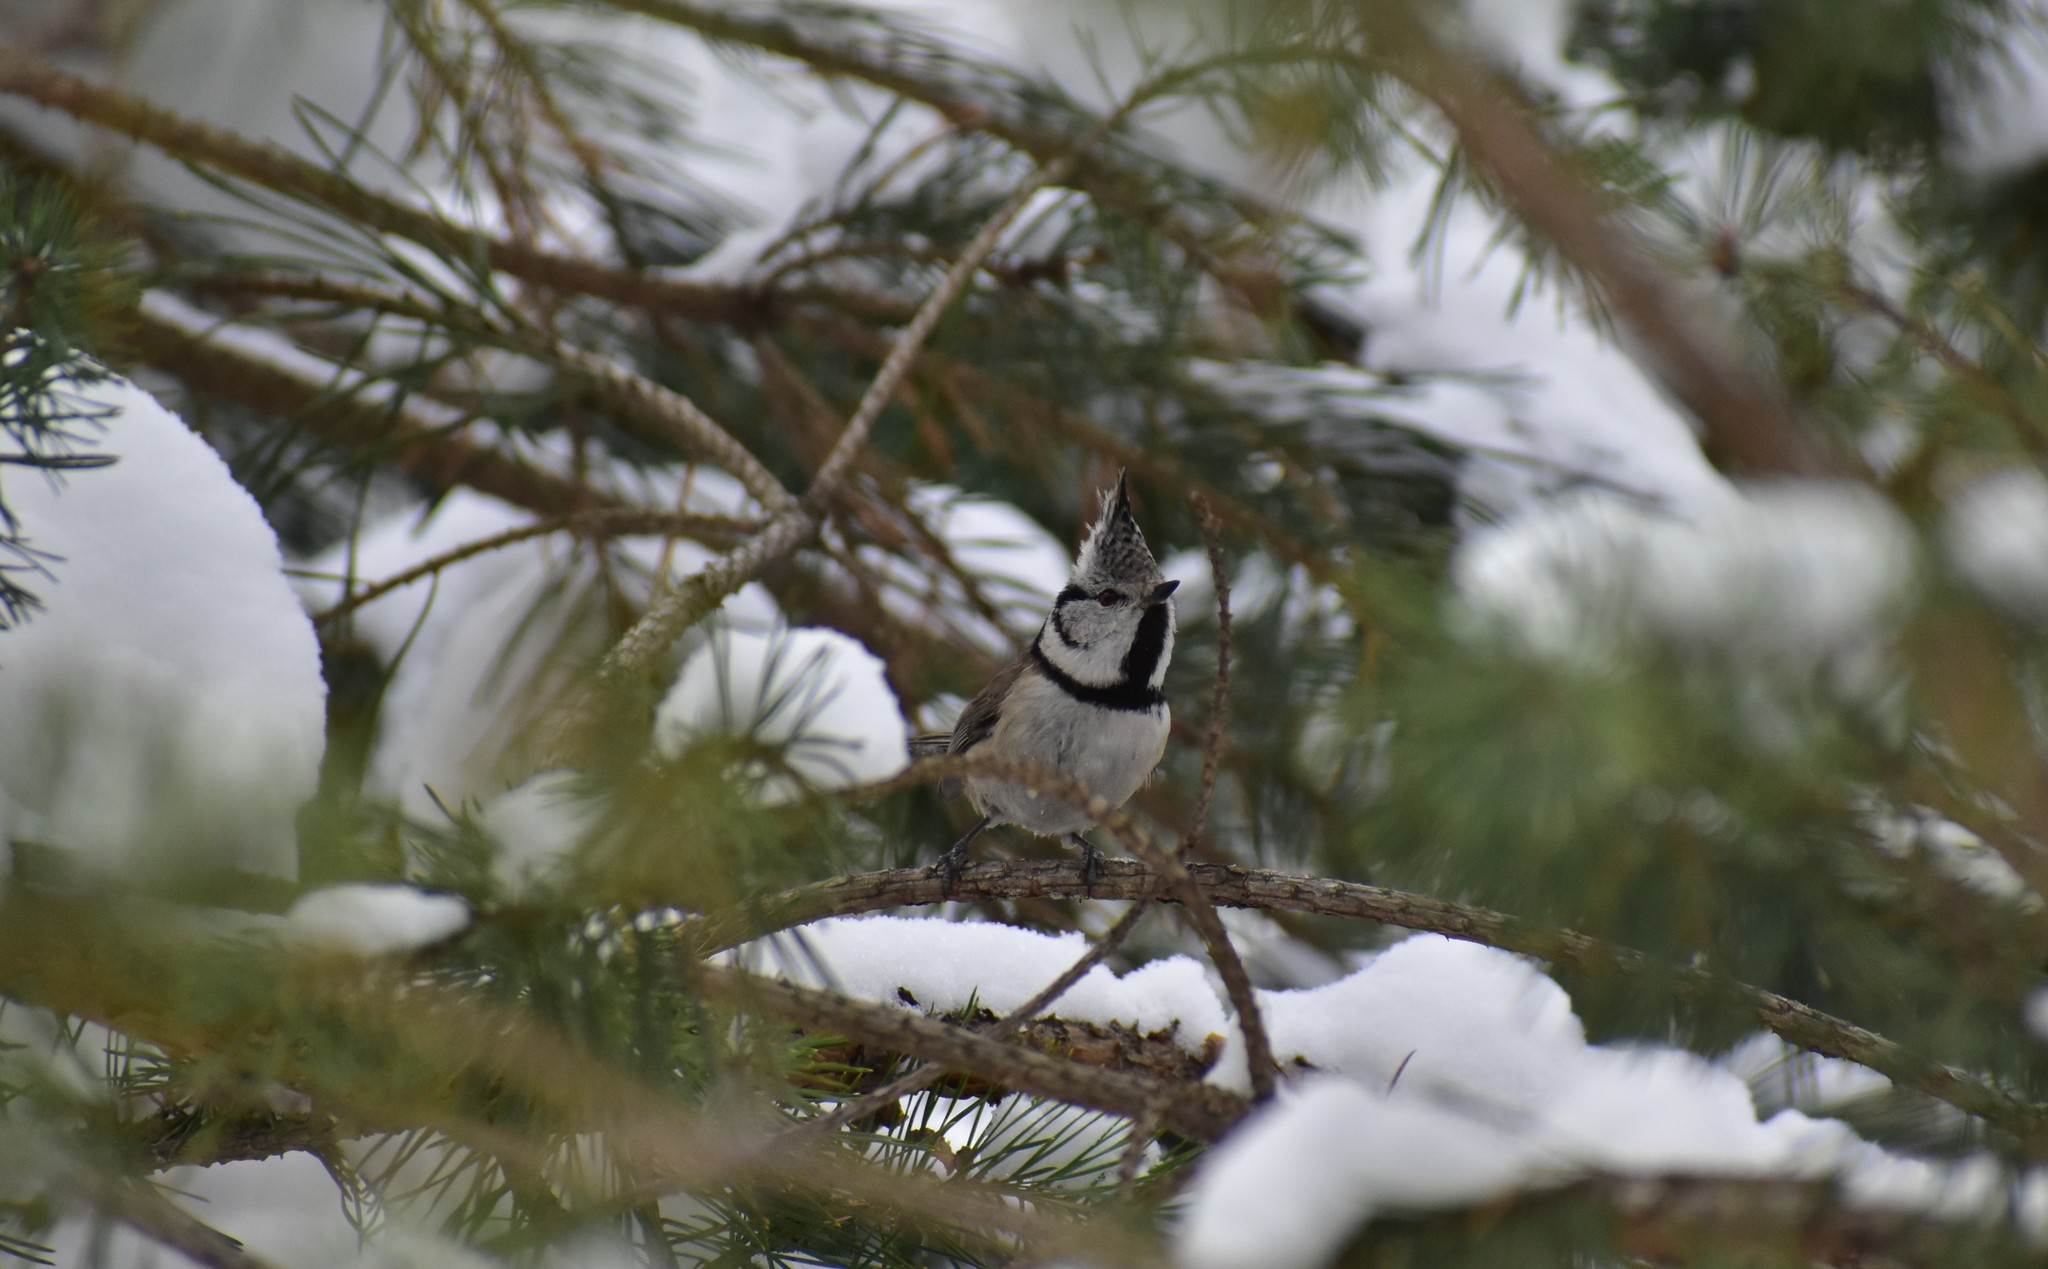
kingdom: Animalia
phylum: Chordata
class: Aves
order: Passeriformes
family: Paridae
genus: Lophophanes
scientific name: Lophophanes cristatus
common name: European crested tit
